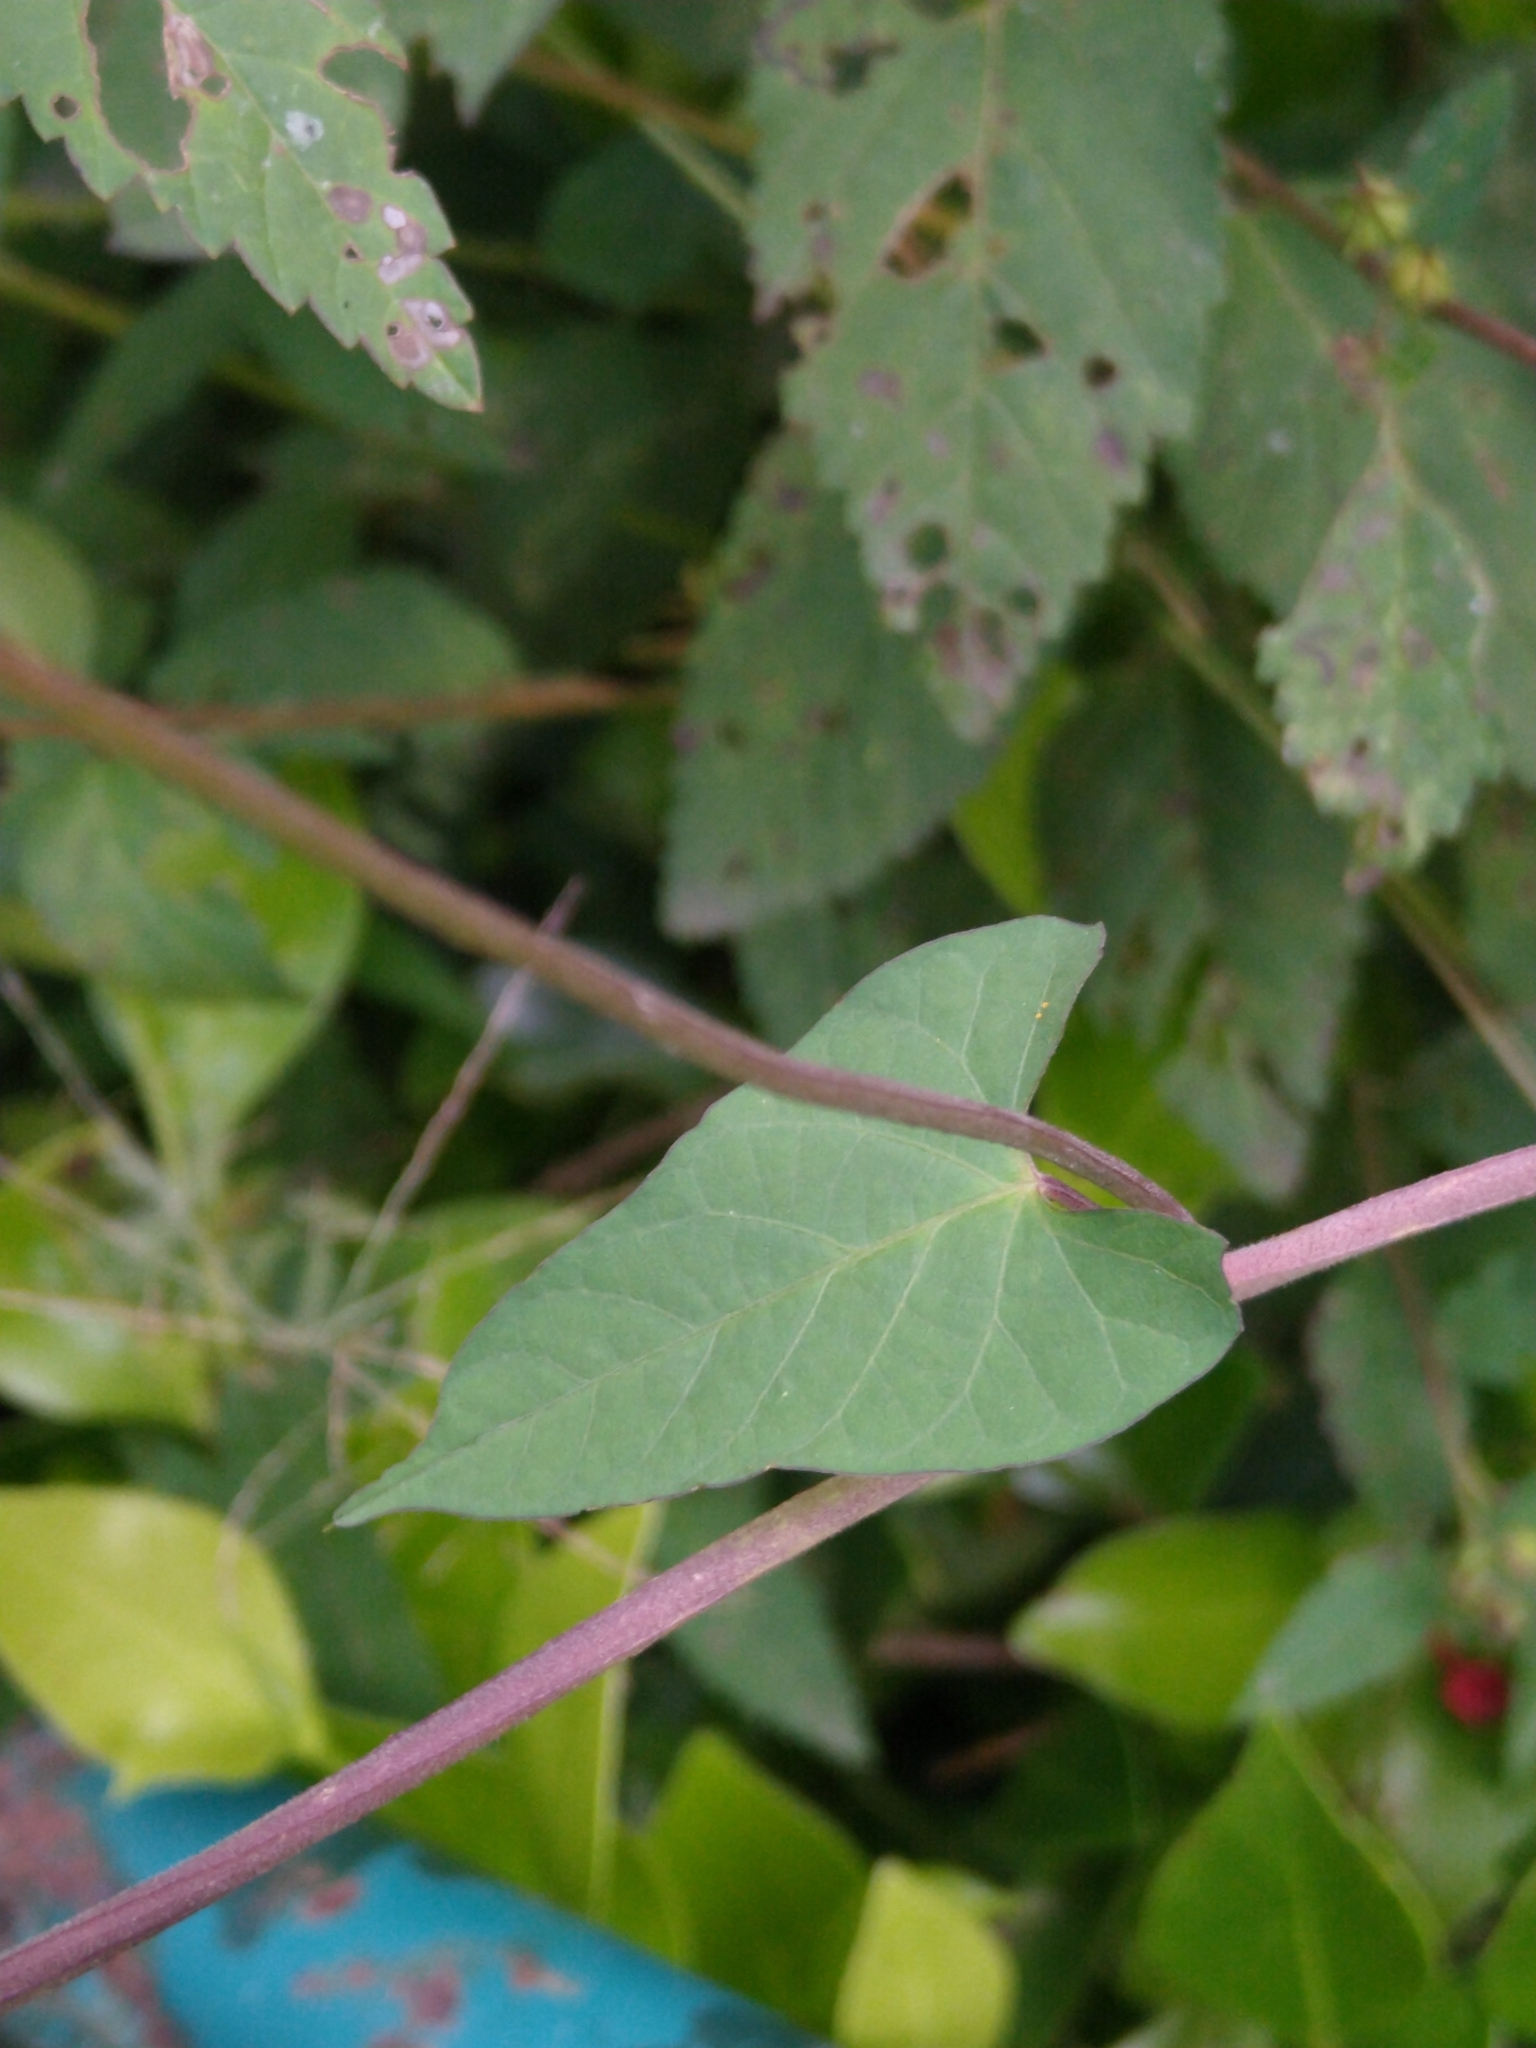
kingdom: Plantae
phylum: Tracheophyta
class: Magnoliopsida
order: Solanales
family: Convolvulaceae
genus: Ipomoea
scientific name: Ipomoea cholulensis
